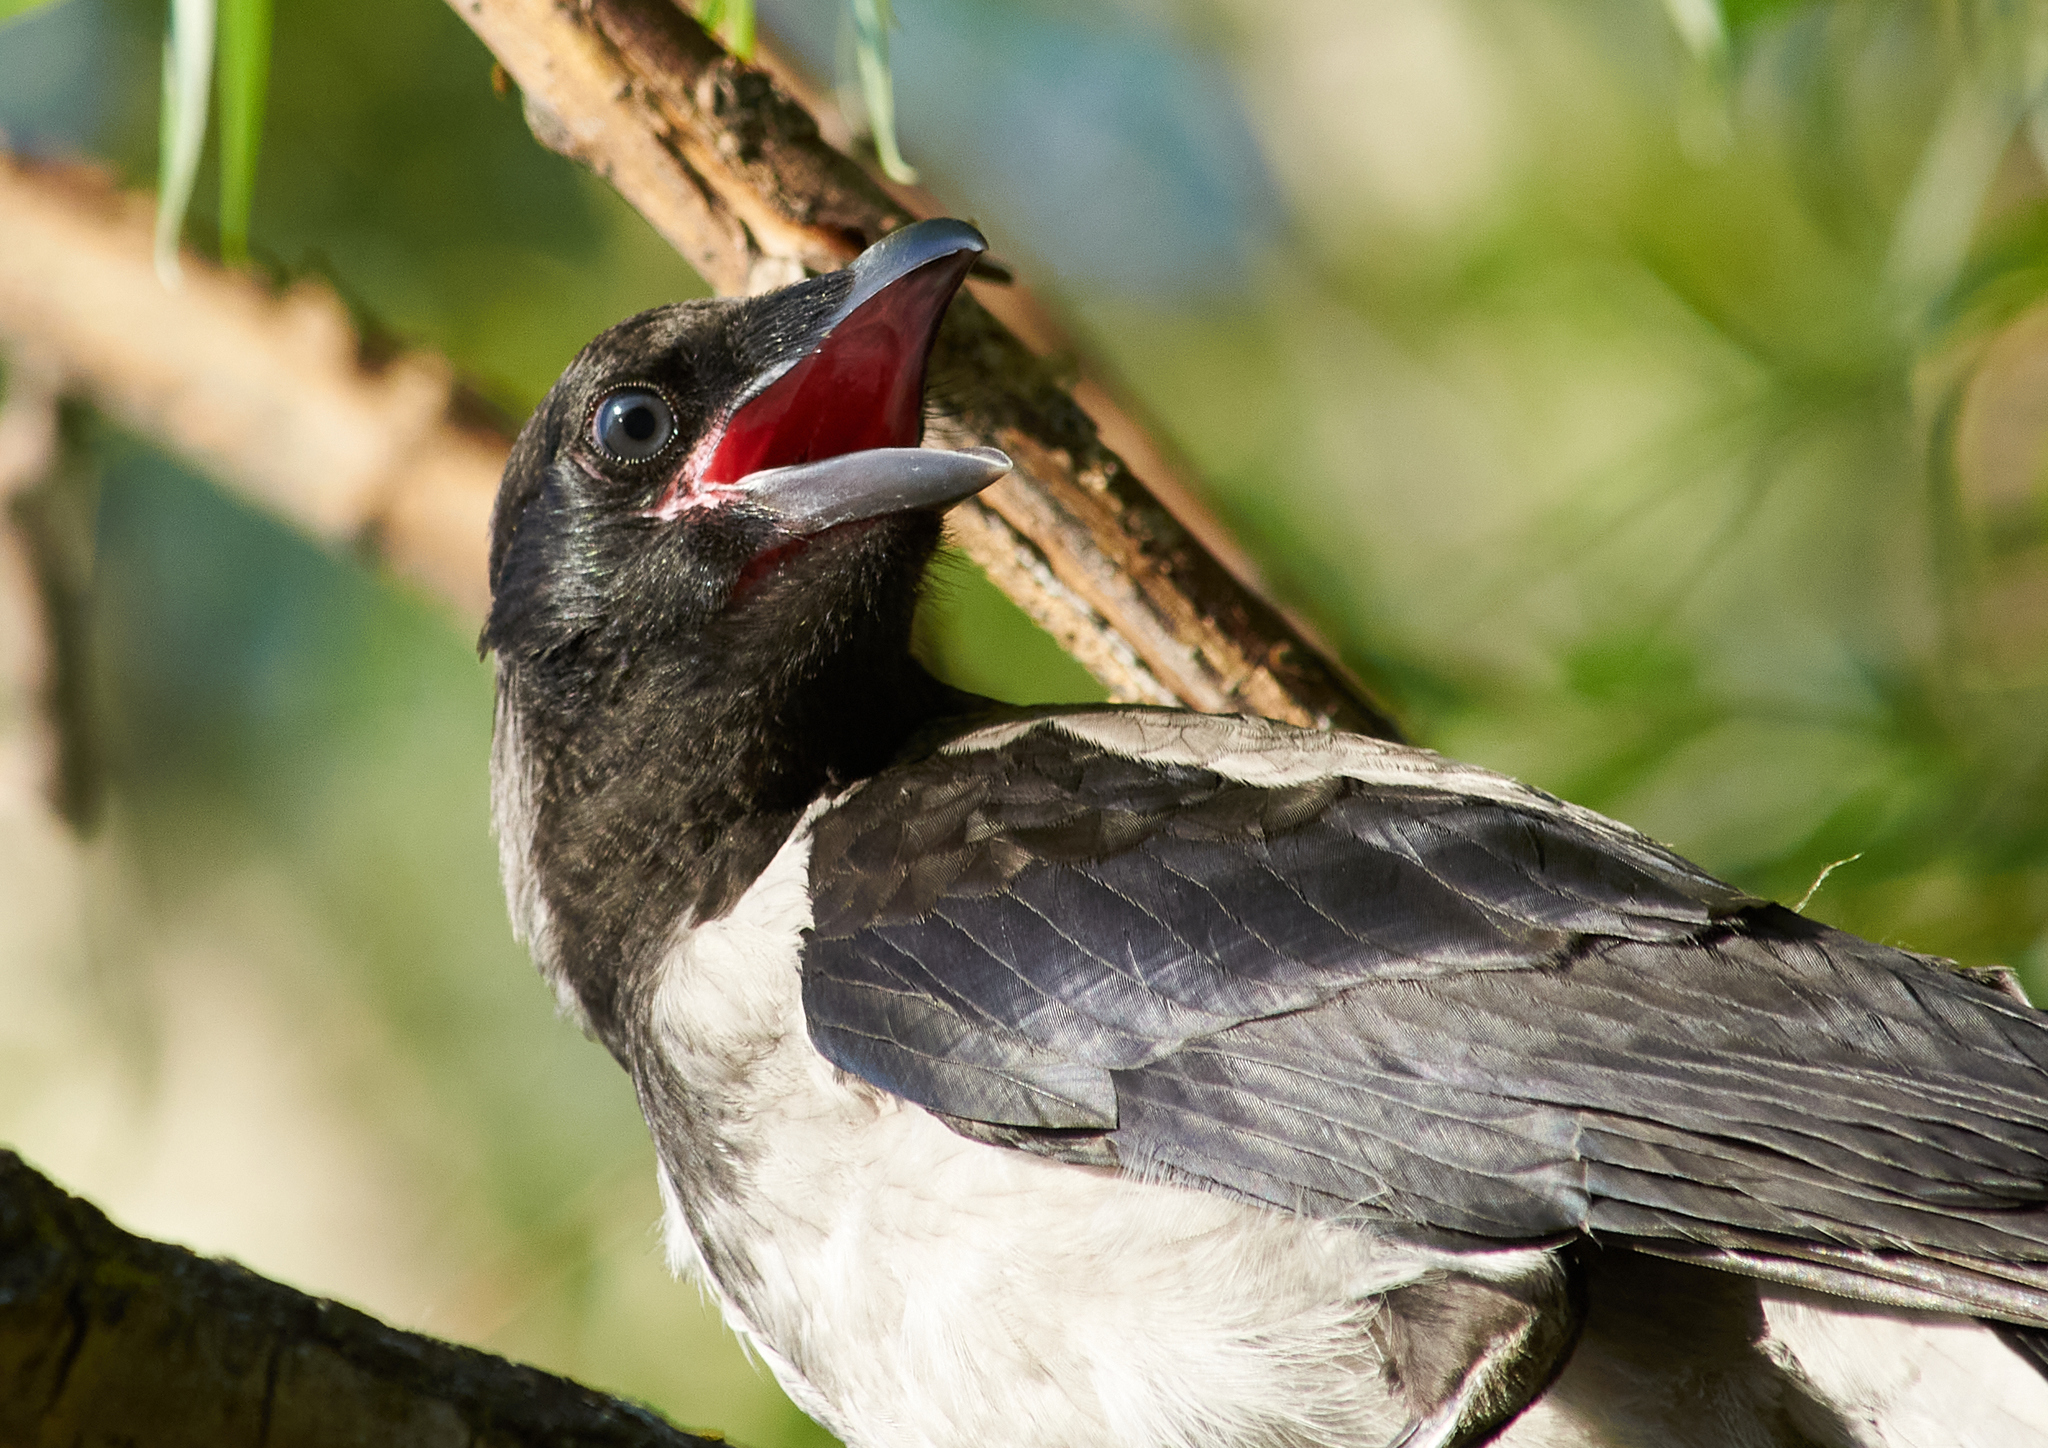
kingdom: Animalia
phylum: Chordata
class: Aves
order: Passeriformes
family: Corvidae
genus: Corvus
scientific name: Corvus cornix
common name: Hooded crow
